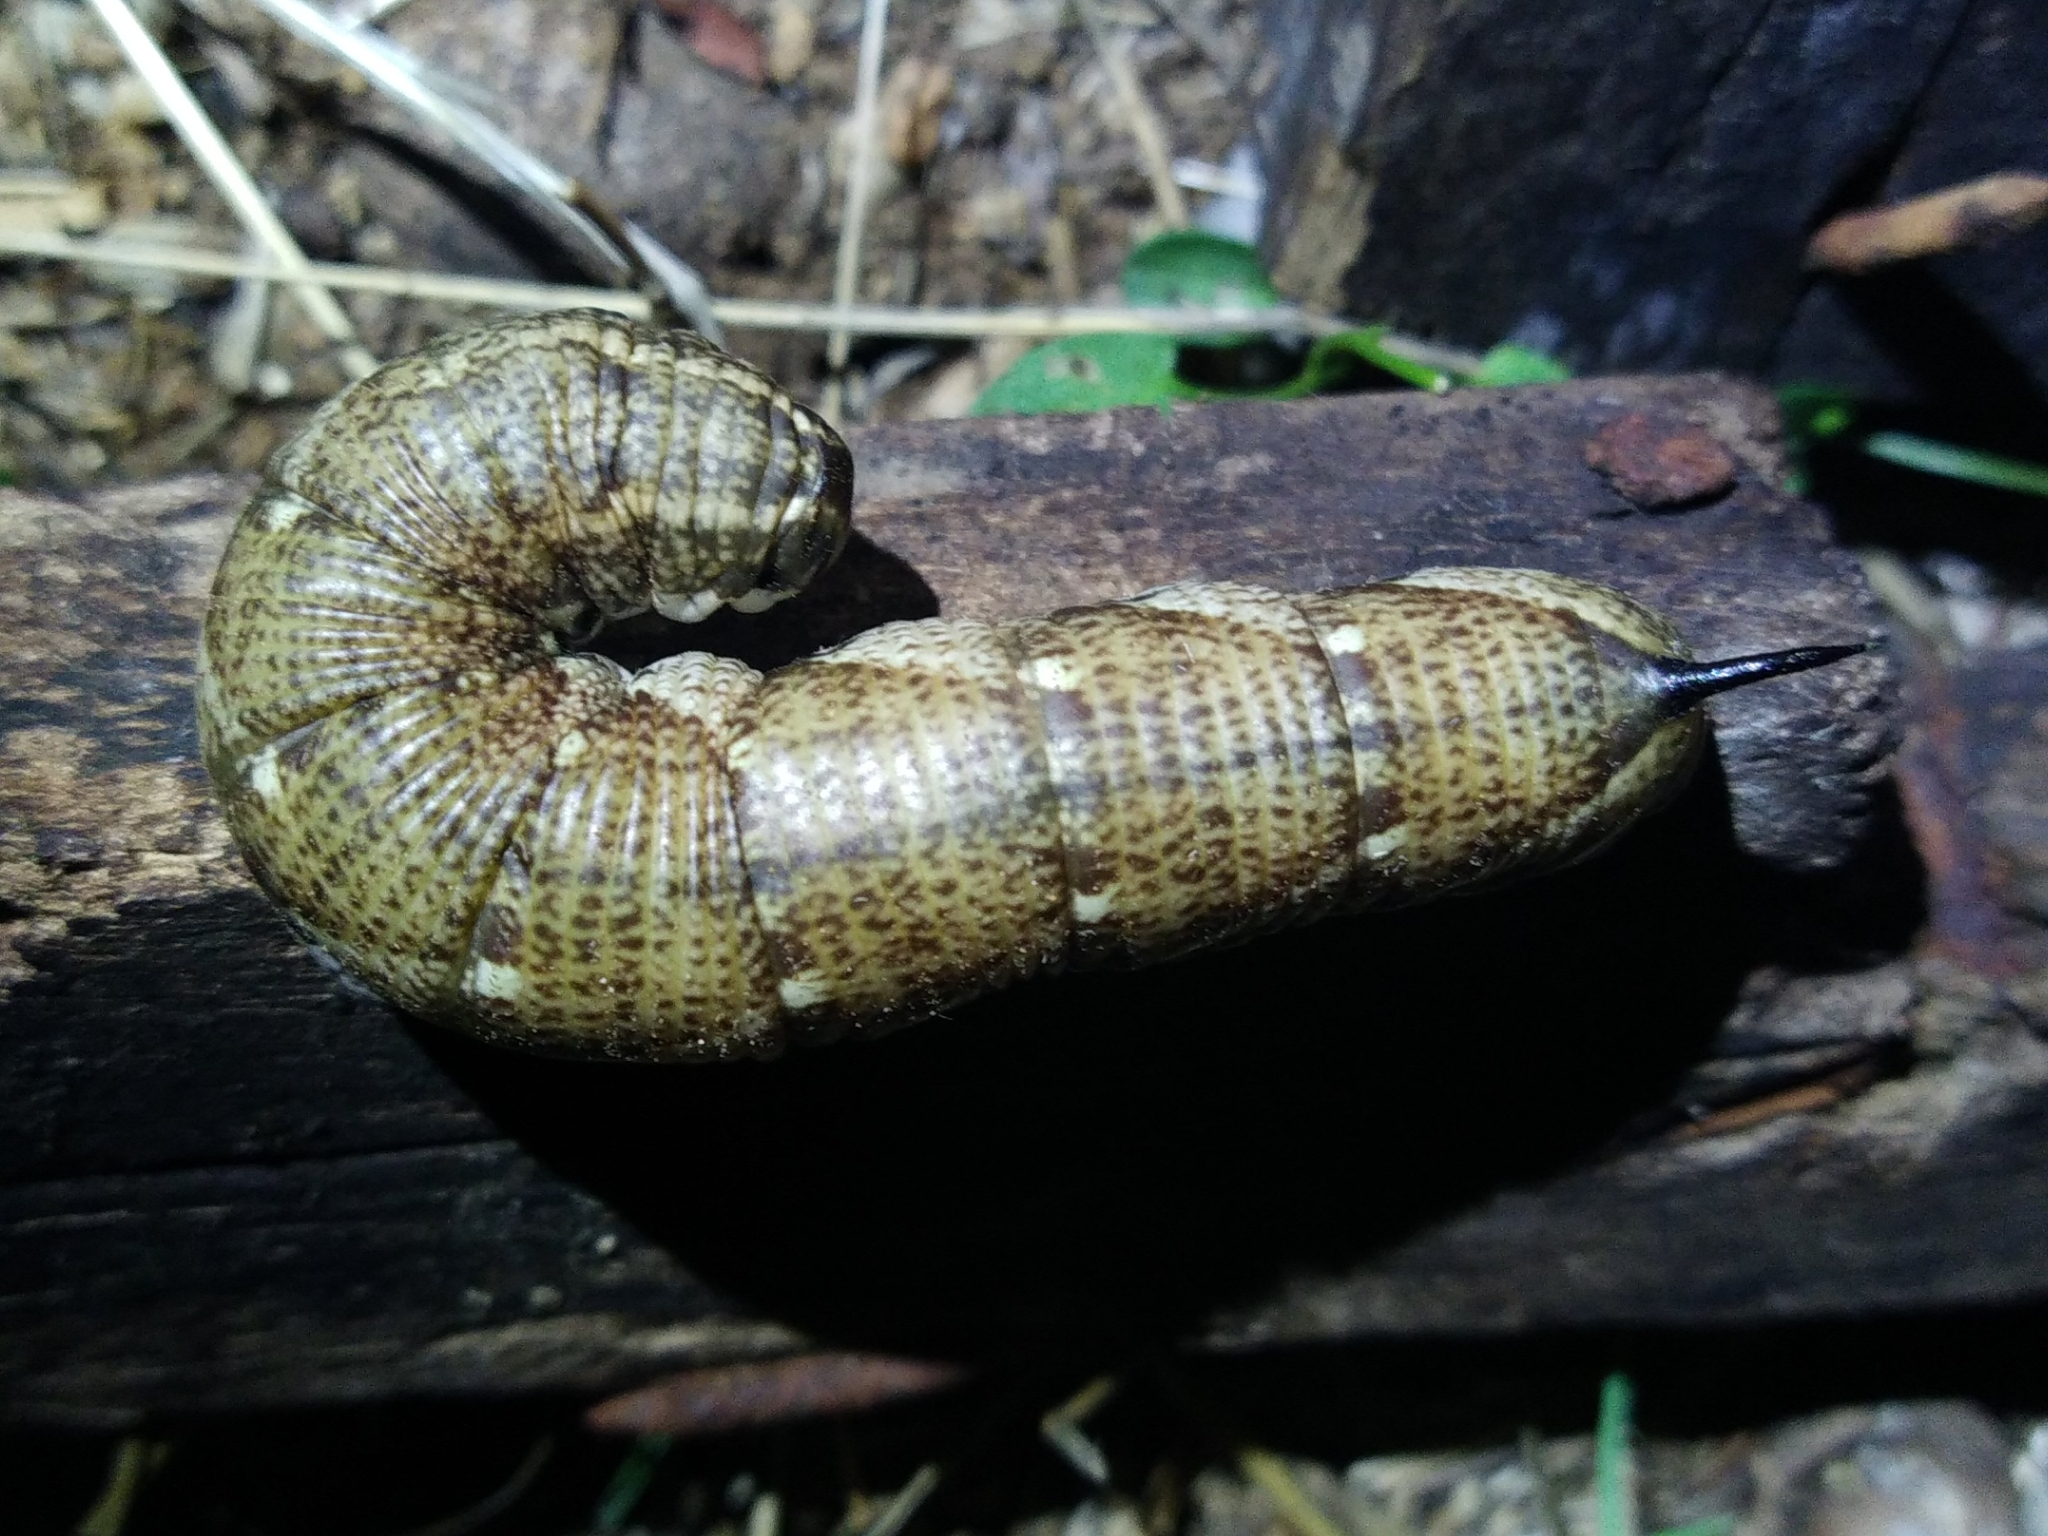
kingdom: Animalia
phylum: Arthropoda
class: Insecta
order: Lepidoptera
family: Sphingidae
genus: Agrius
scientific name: Agrius convolvuli
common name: Convolvulus hawkmoth
